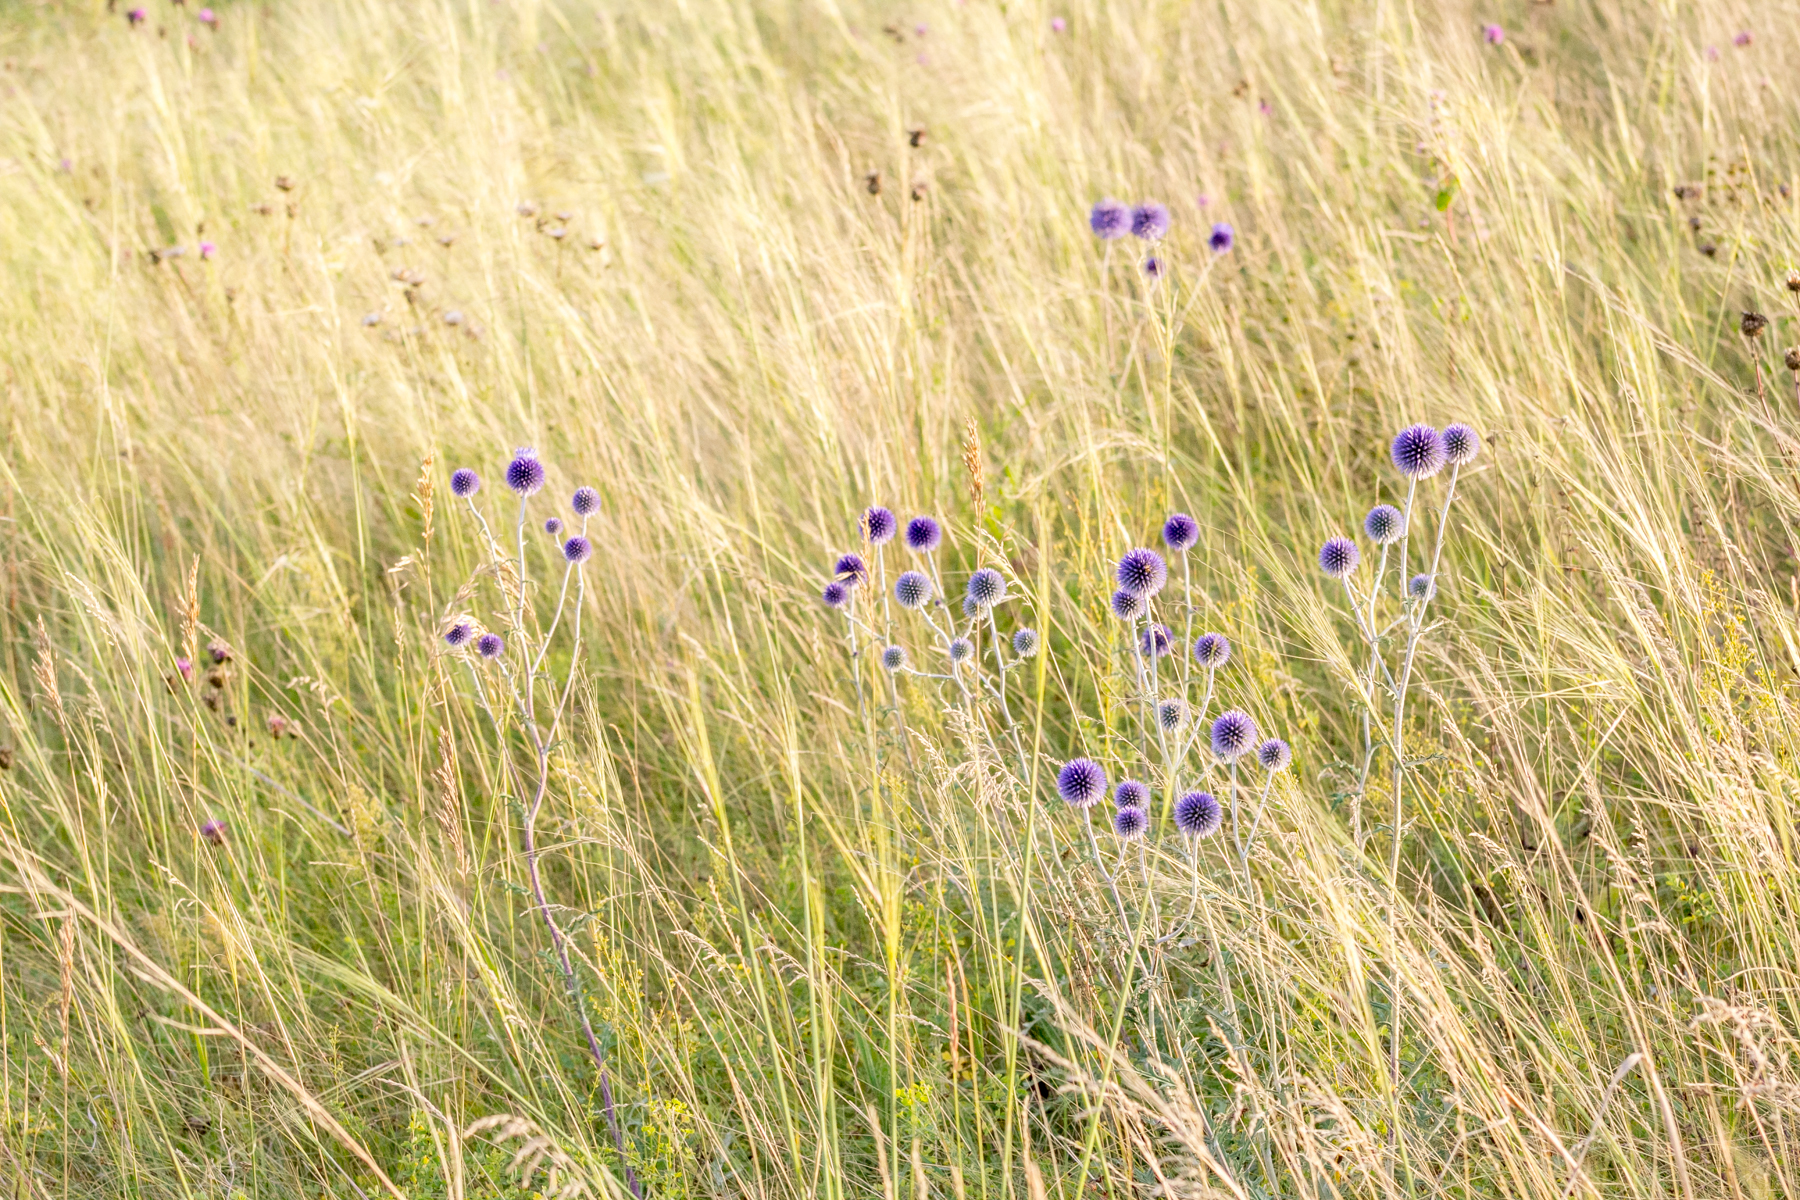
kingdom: Plantae
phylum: Tracheophyta
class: Magnoliopsida
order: Asterales
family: Asteraceae
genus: Echinops
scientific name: Echinops ritro
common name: Globe thistle
